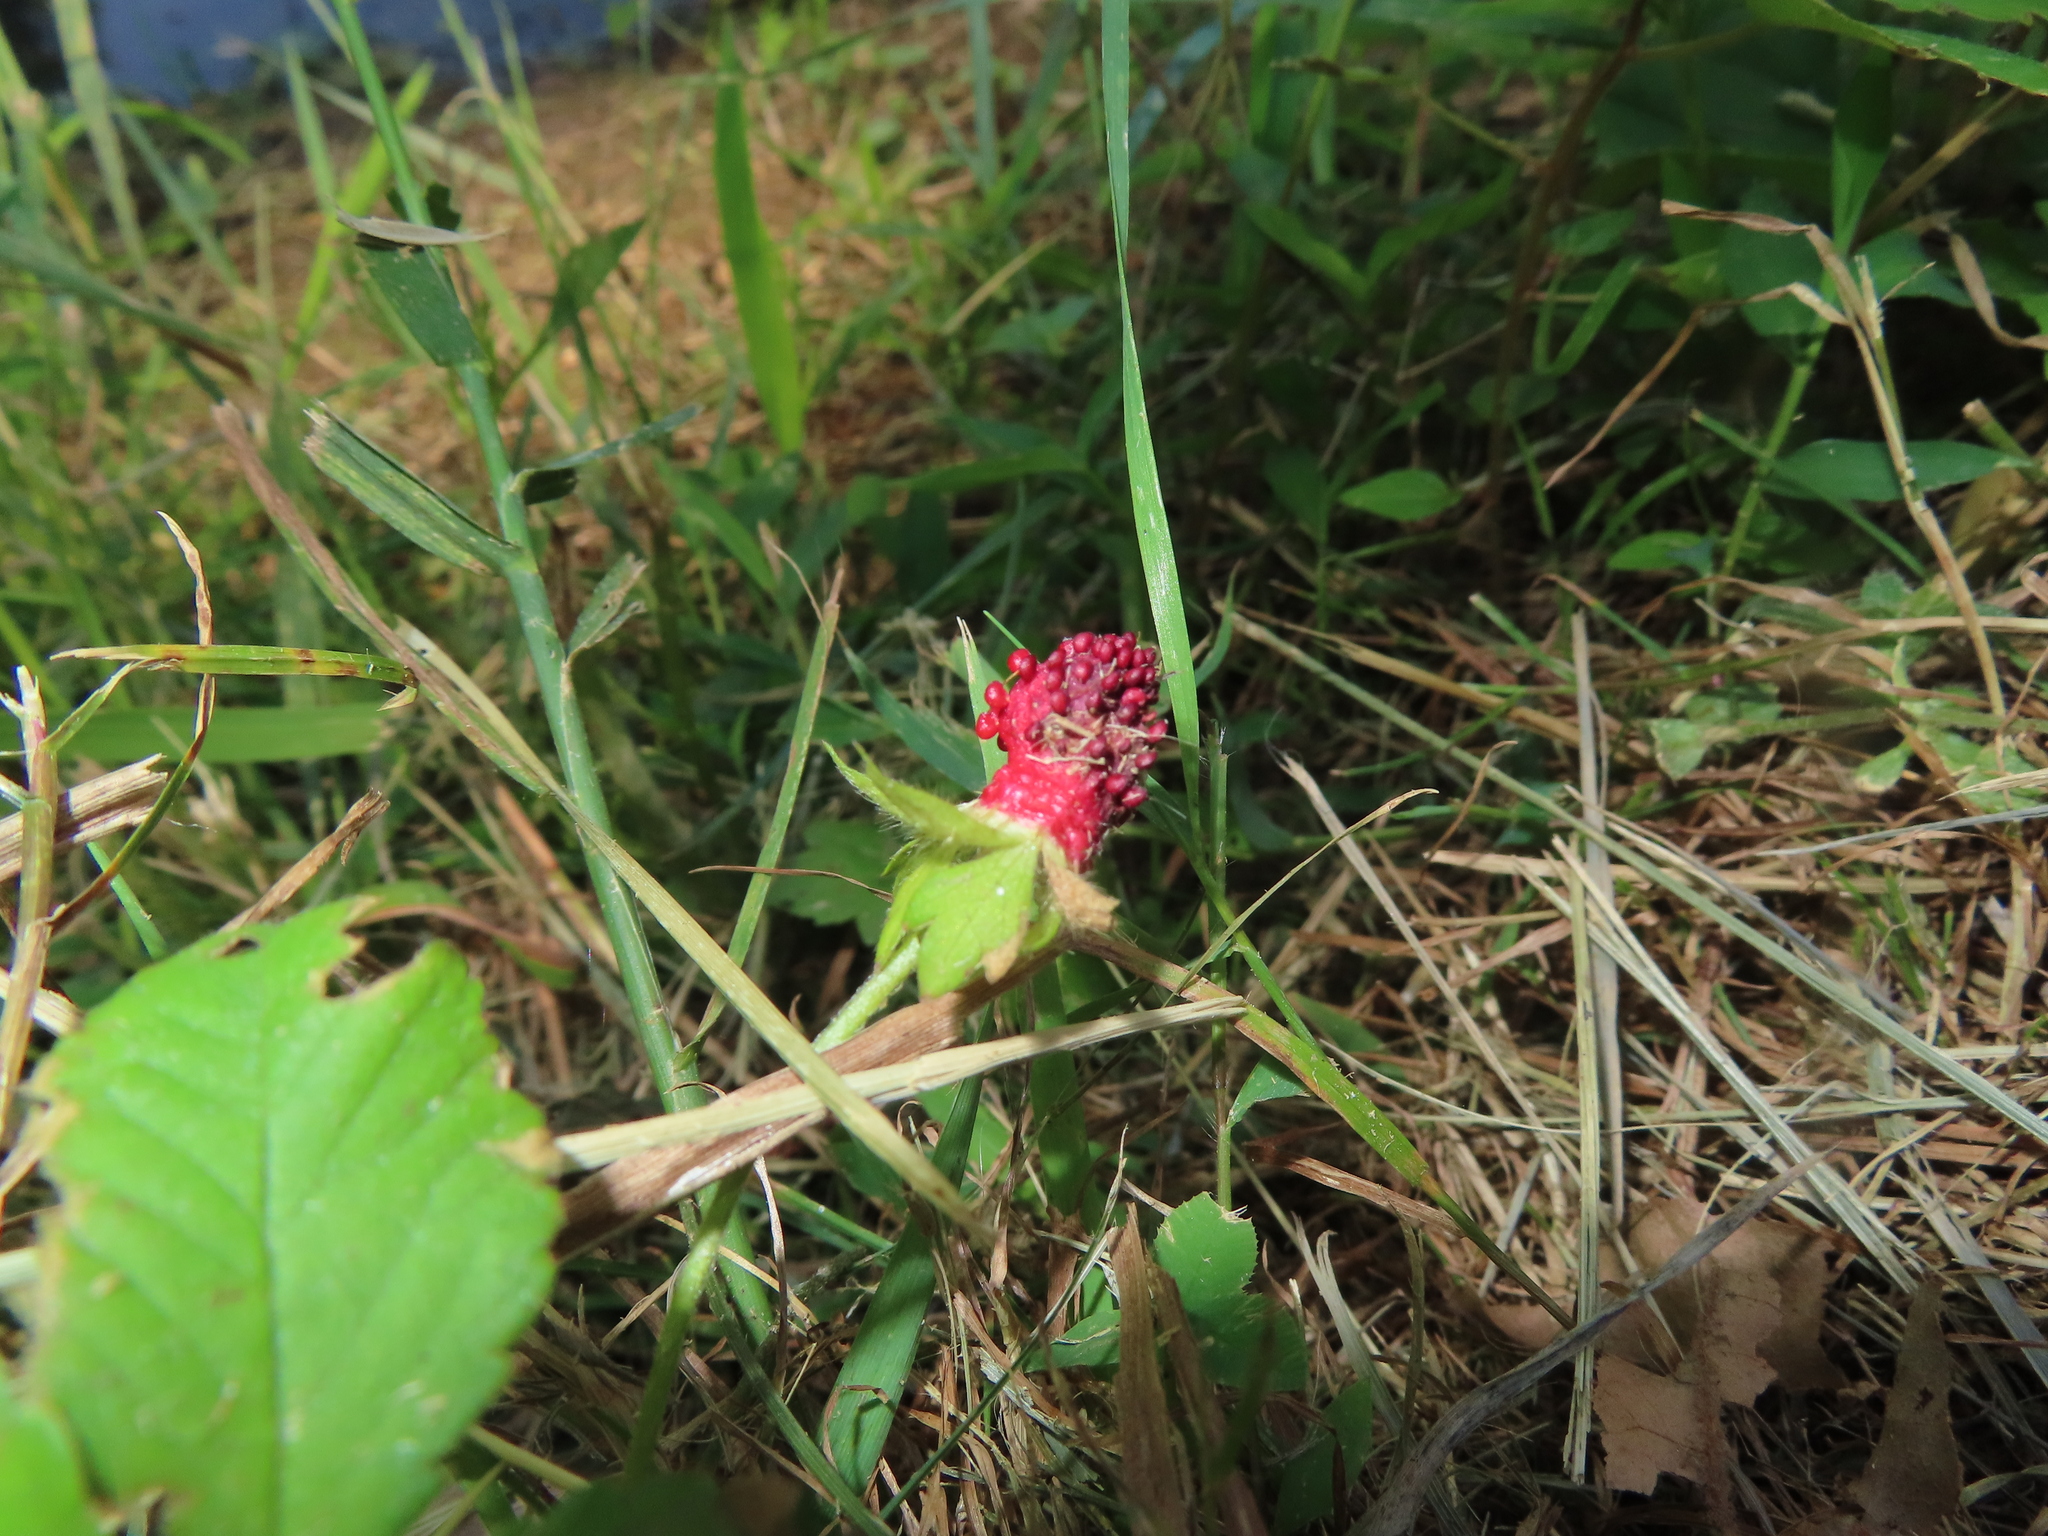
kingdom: Plantae
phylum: Tracheophyta
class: Magnoliopsida
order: Rosales
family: Rosaceae
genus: Potentilla
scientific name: Potentilla indica
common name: Yellow-flowered strawberry
